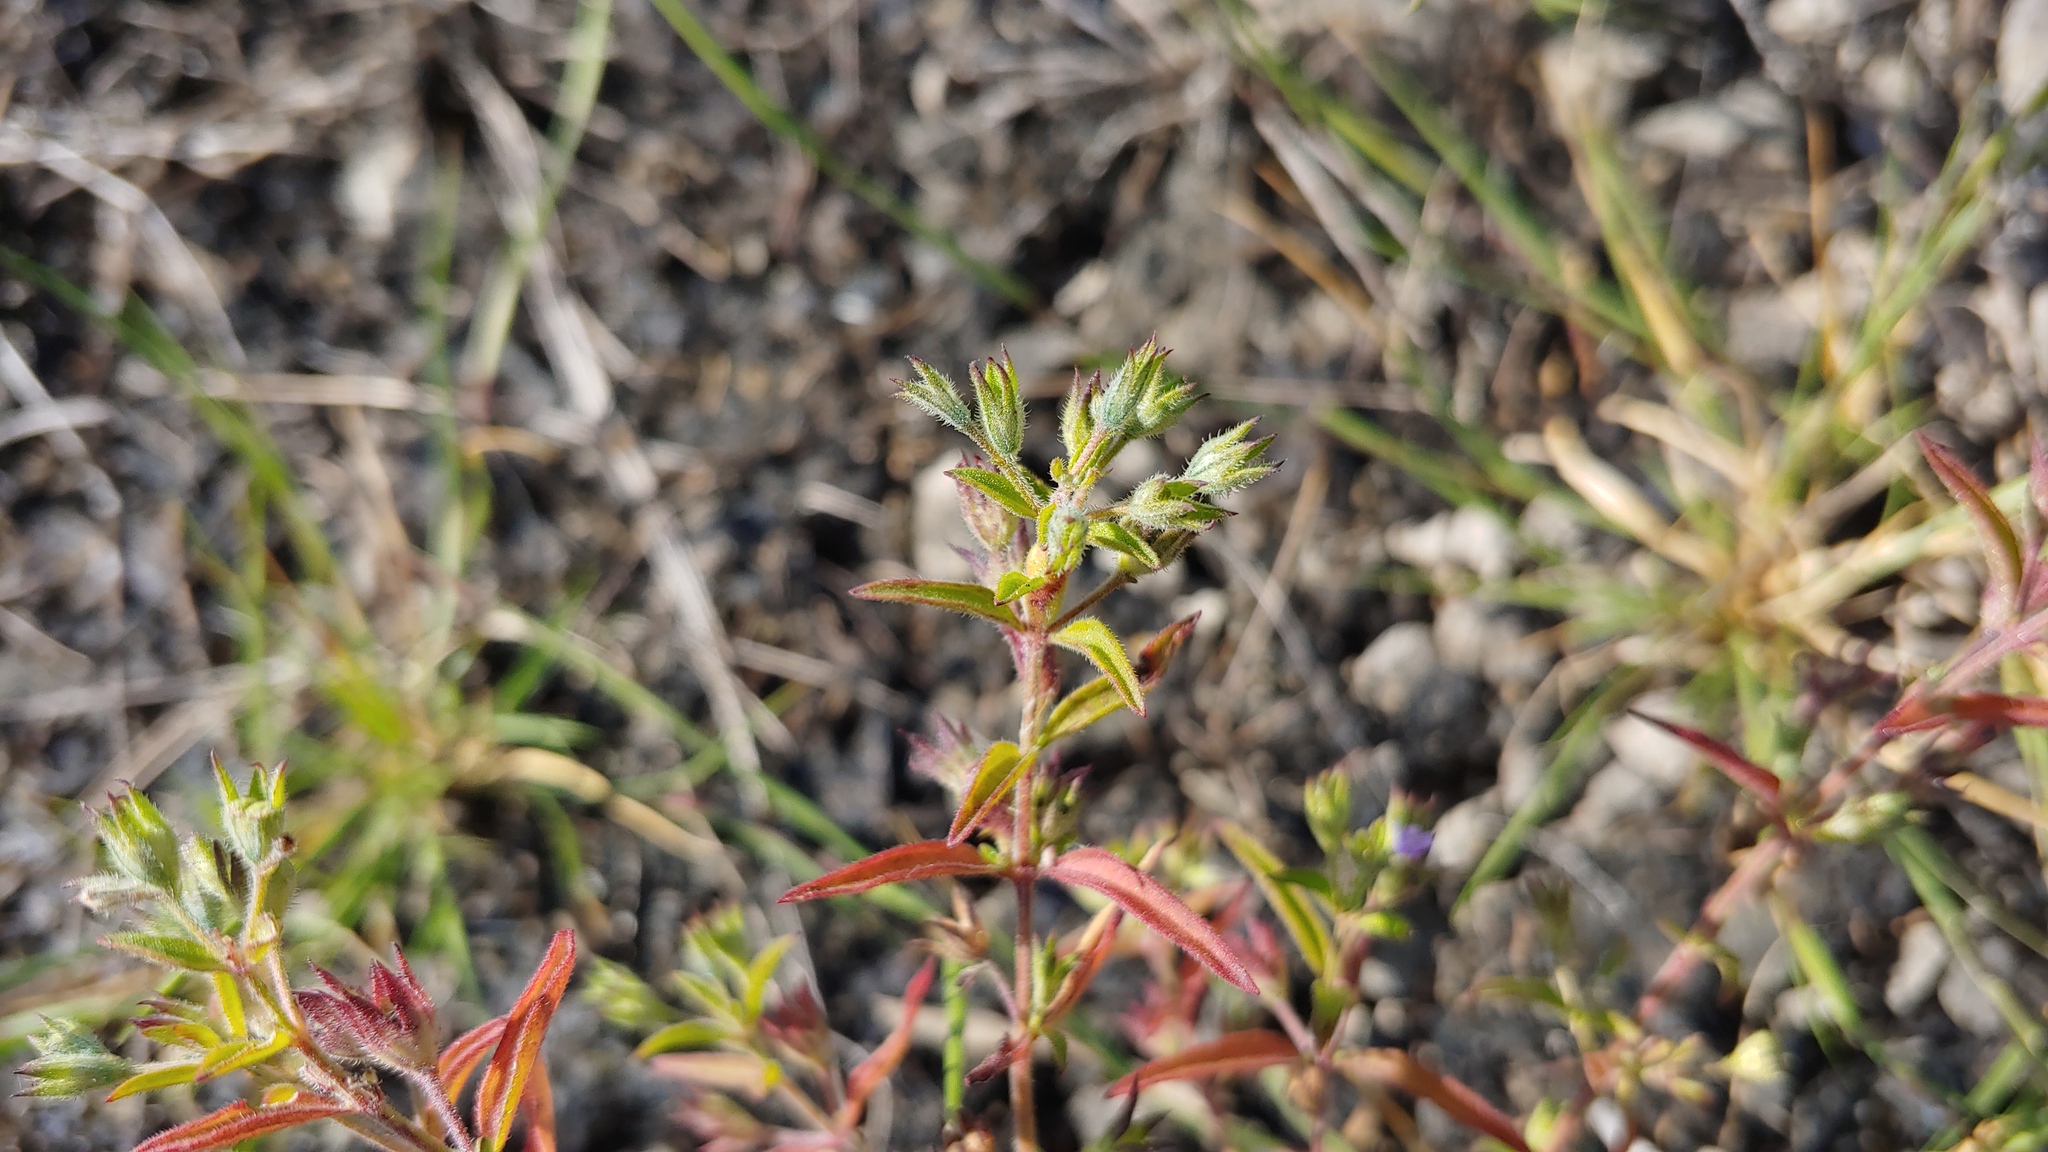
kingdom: Plantae
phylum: Tracheophyta
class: Magnoliopsida
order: Lamiales
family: Lamiaceae
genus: Trichostema
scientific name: Trichostema brachiatum
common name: False pennyroyal
